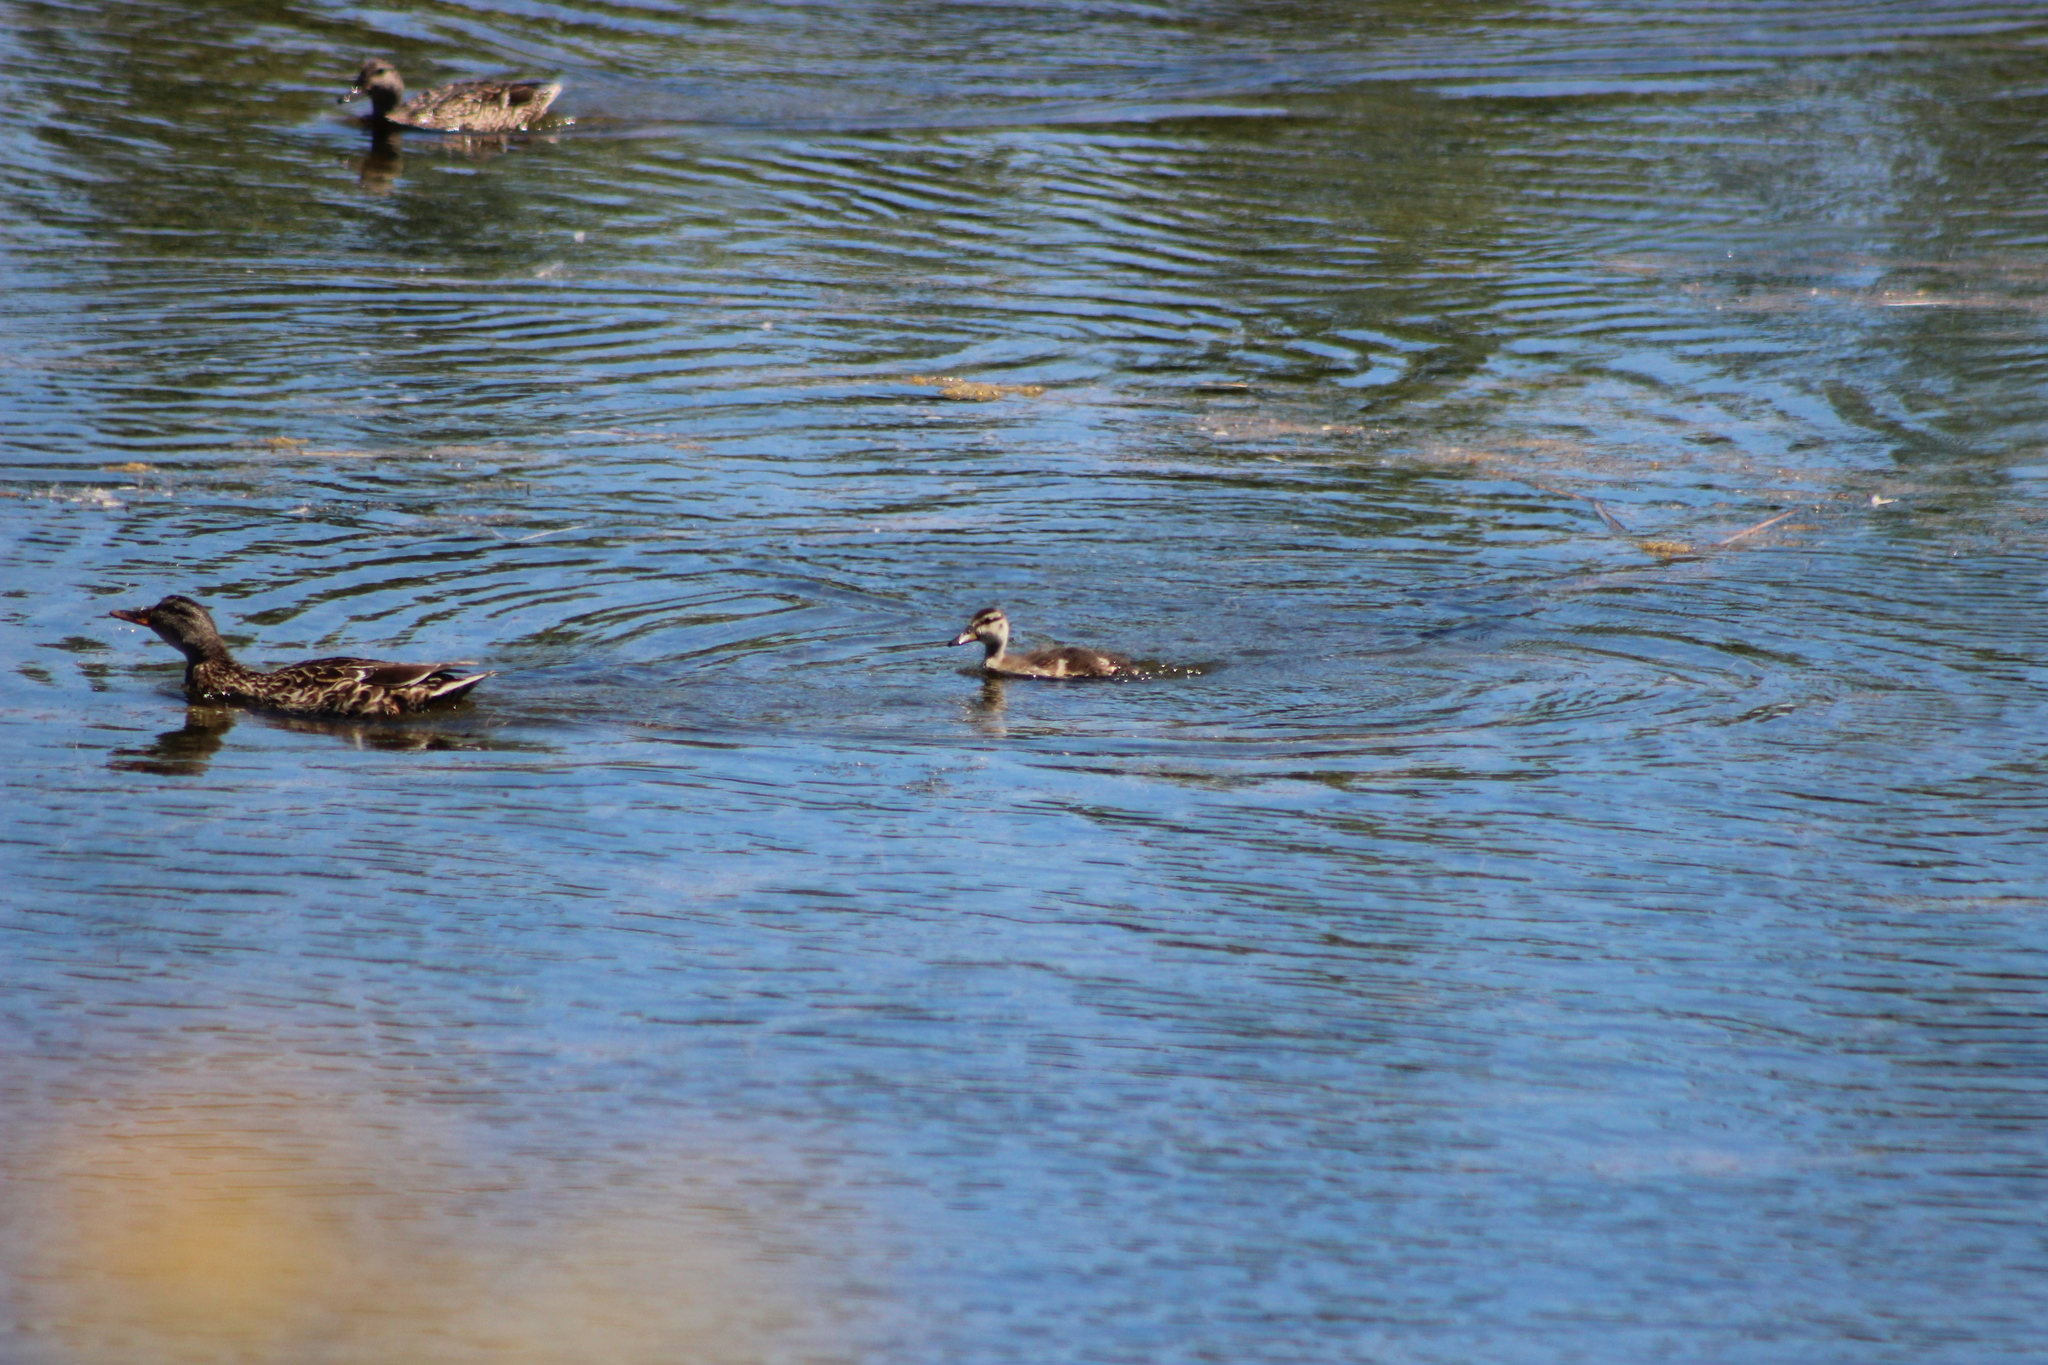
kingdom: Animalia
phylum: Chordata
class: Aves
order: Anseriformes
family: Anatidae
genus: Anas
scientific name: Anas platyrhynchos
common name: Mallard
